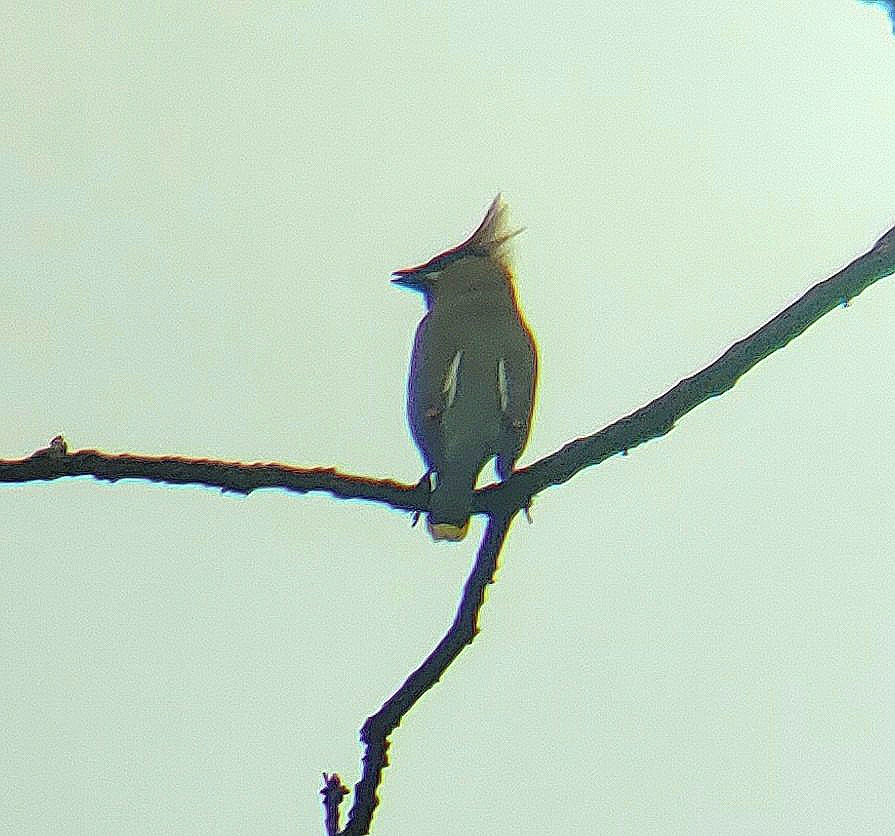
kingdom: Animalia
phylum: Chordata
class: Aves
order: Passeriformes
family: Bombycillidae
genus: Bombycilla
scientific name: Bombycilla cedrorum
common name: Cedar waxwing
